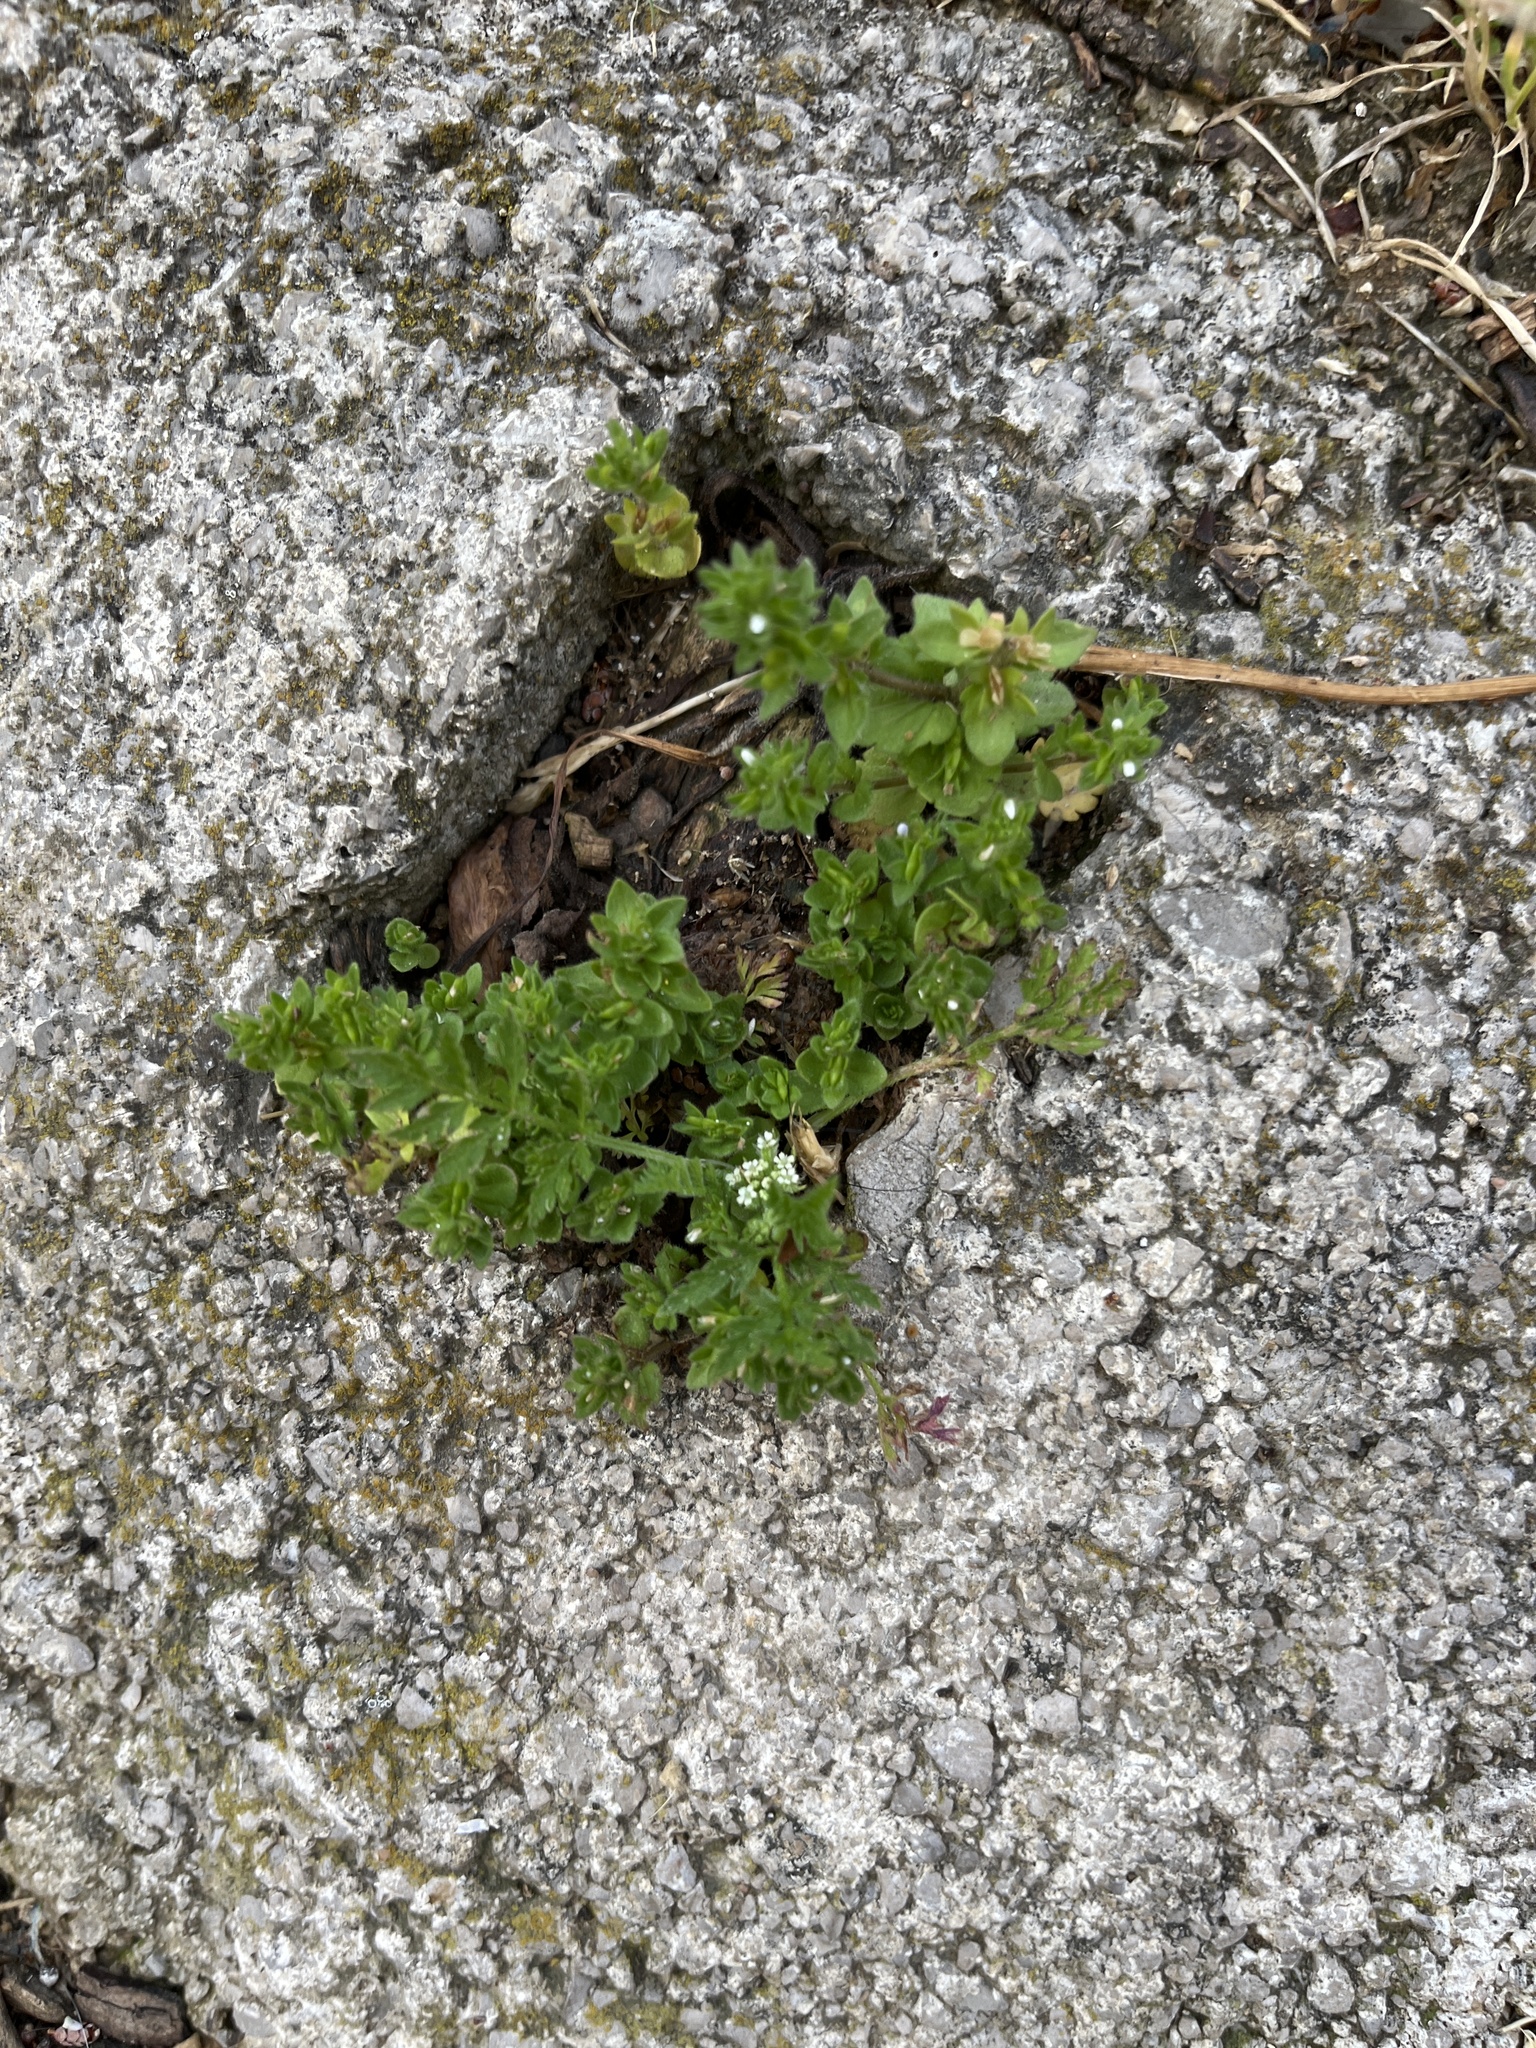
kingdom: Plantae
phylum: Tracheophyta
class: Magnoliopsida
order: Lamiales
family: Plantaginaceae
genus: Veronica
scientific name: Veronica arvensis
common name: Corn speedwell
